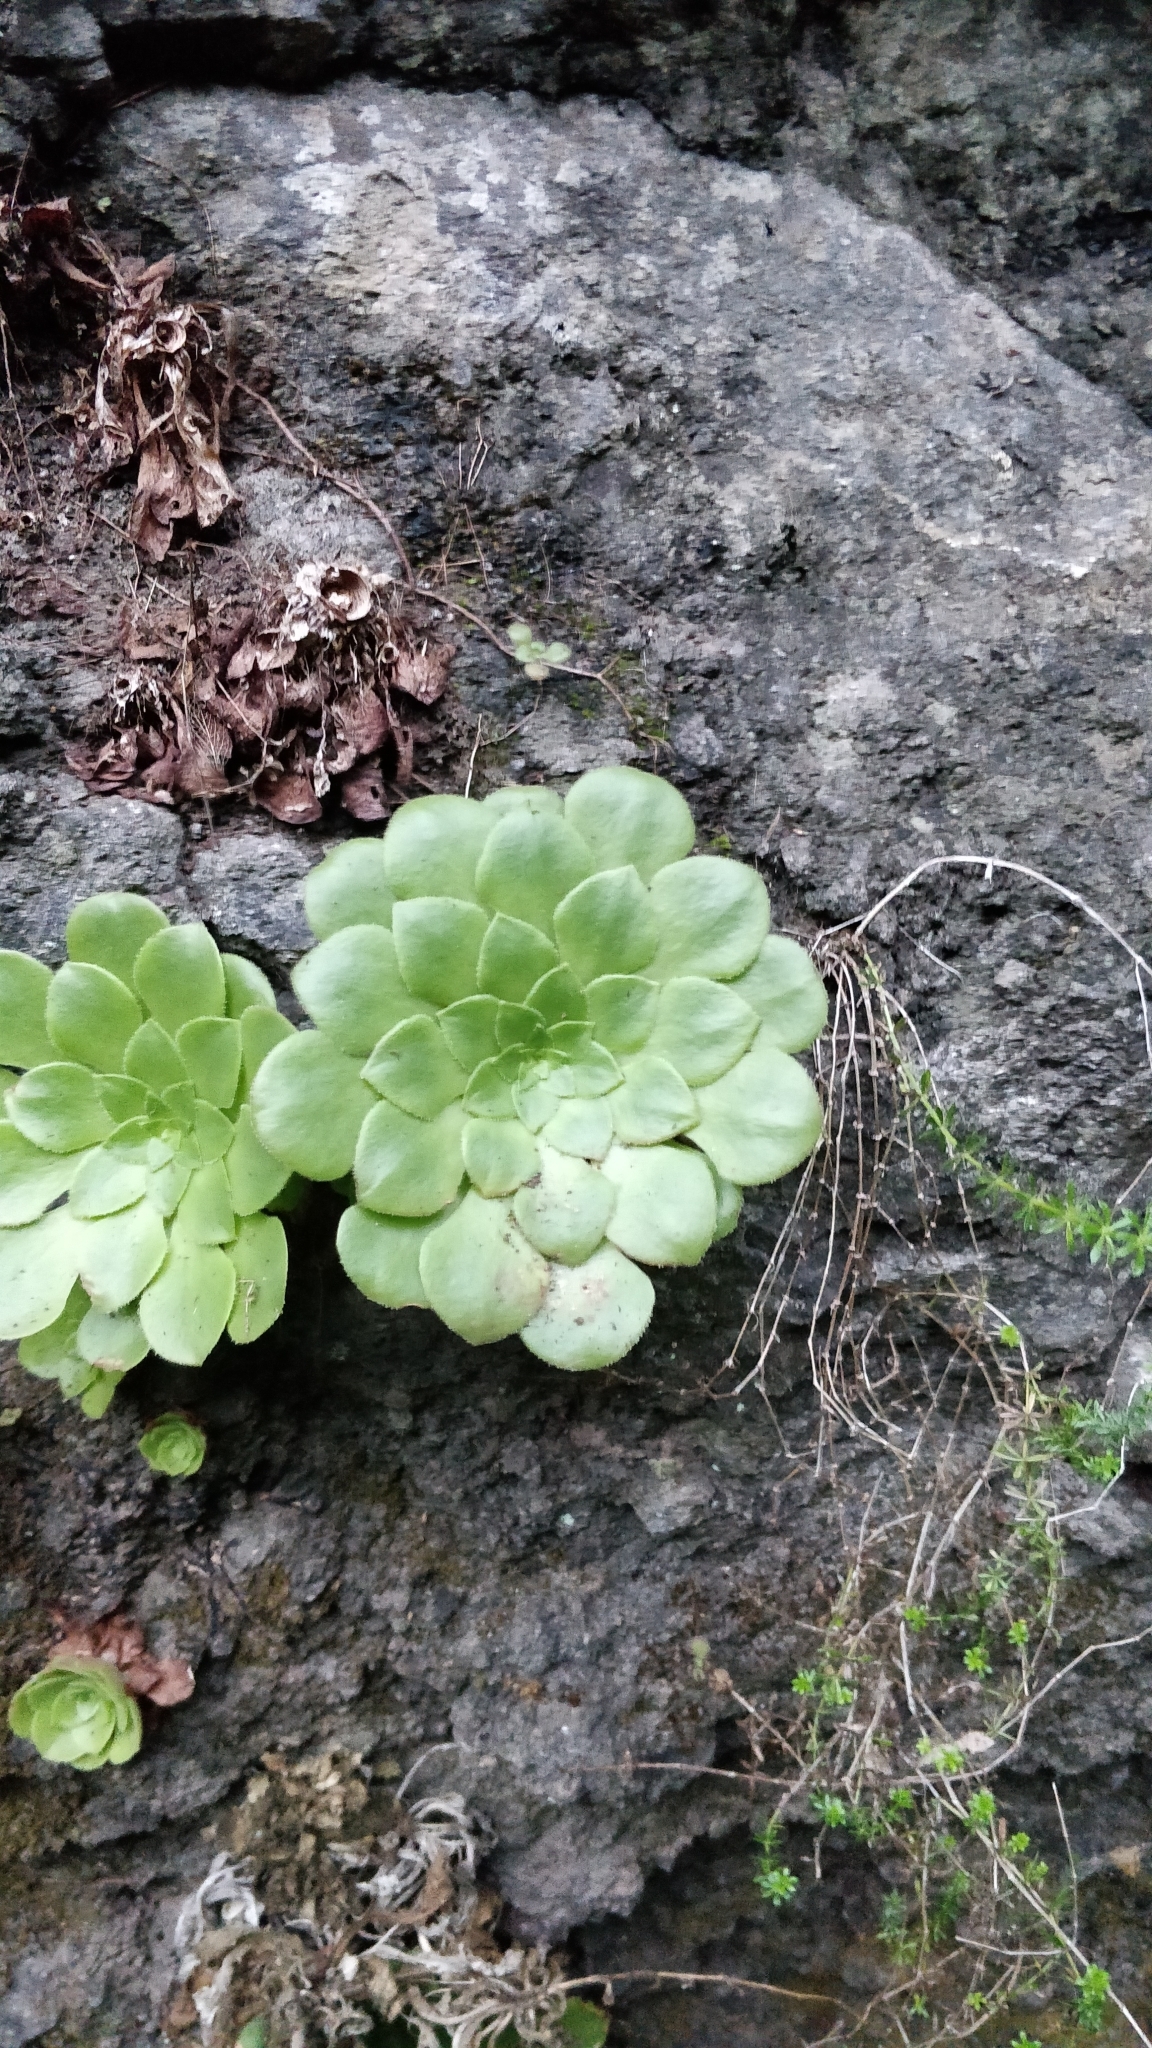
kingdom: Plantae
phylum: Tracheophyta
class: Magnoliopsida
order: Saxifragales
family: Crassulaceae
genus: Aeonium
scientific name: Aeonium glandulosum
